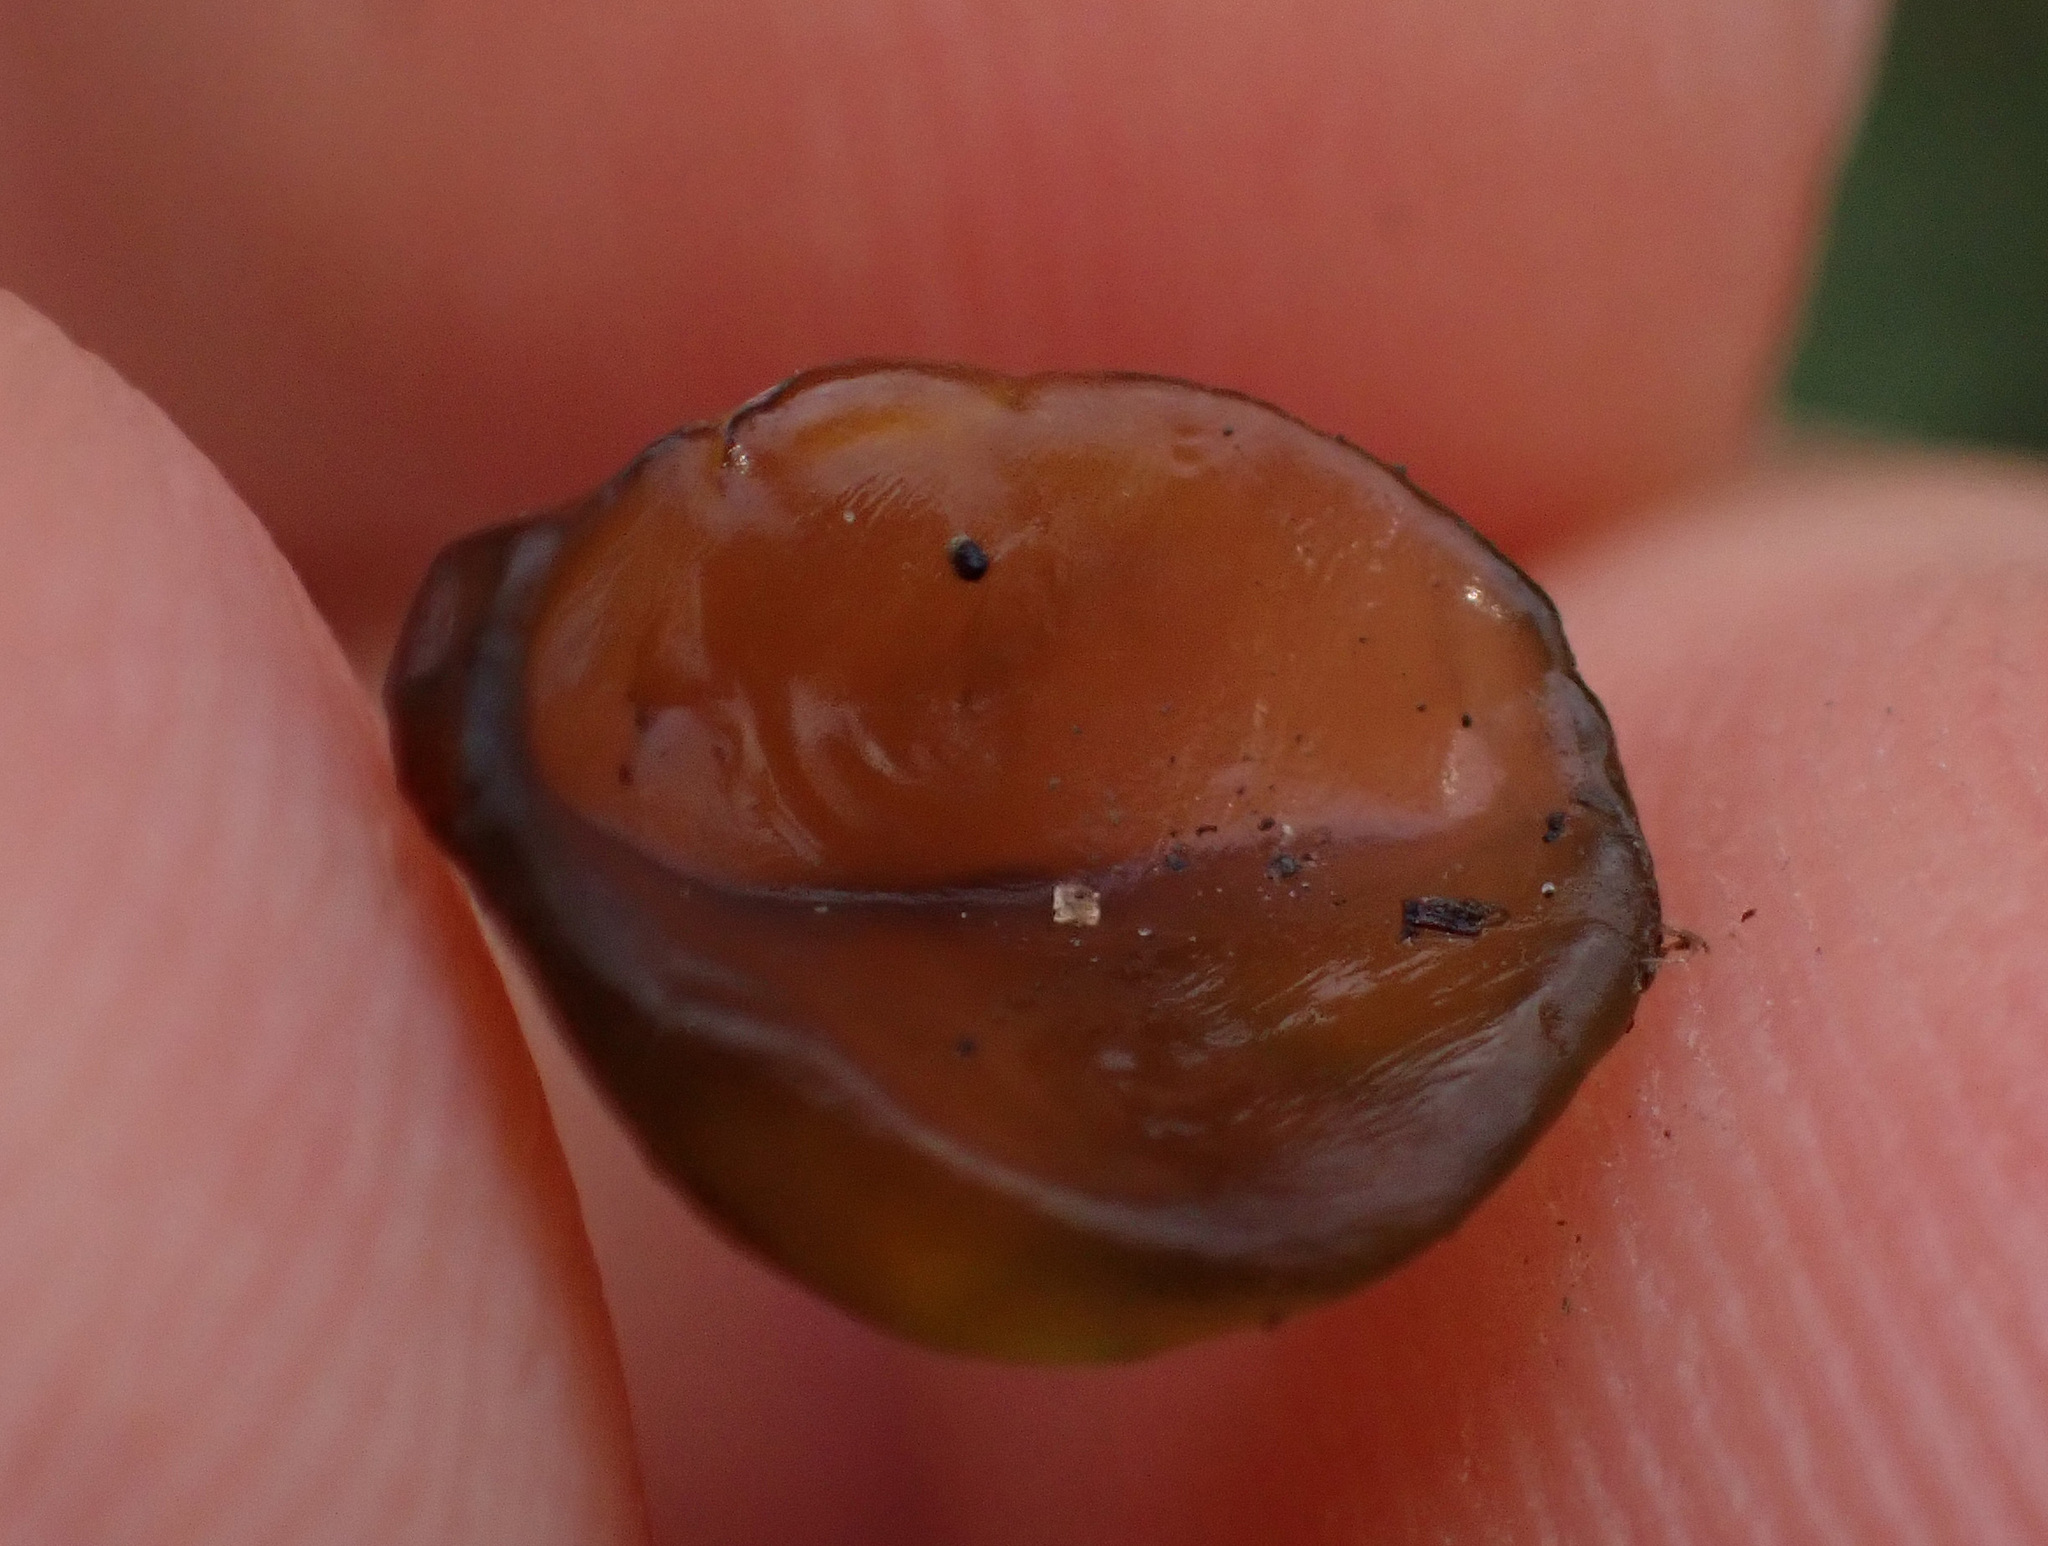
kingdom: Bacteria
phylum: Cyanobacteria
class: Cyanobacteriia
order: Cyanobacteriales
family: Nostocaceae
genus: Nostoc
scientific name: Nostoc commune
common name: Star jelly
